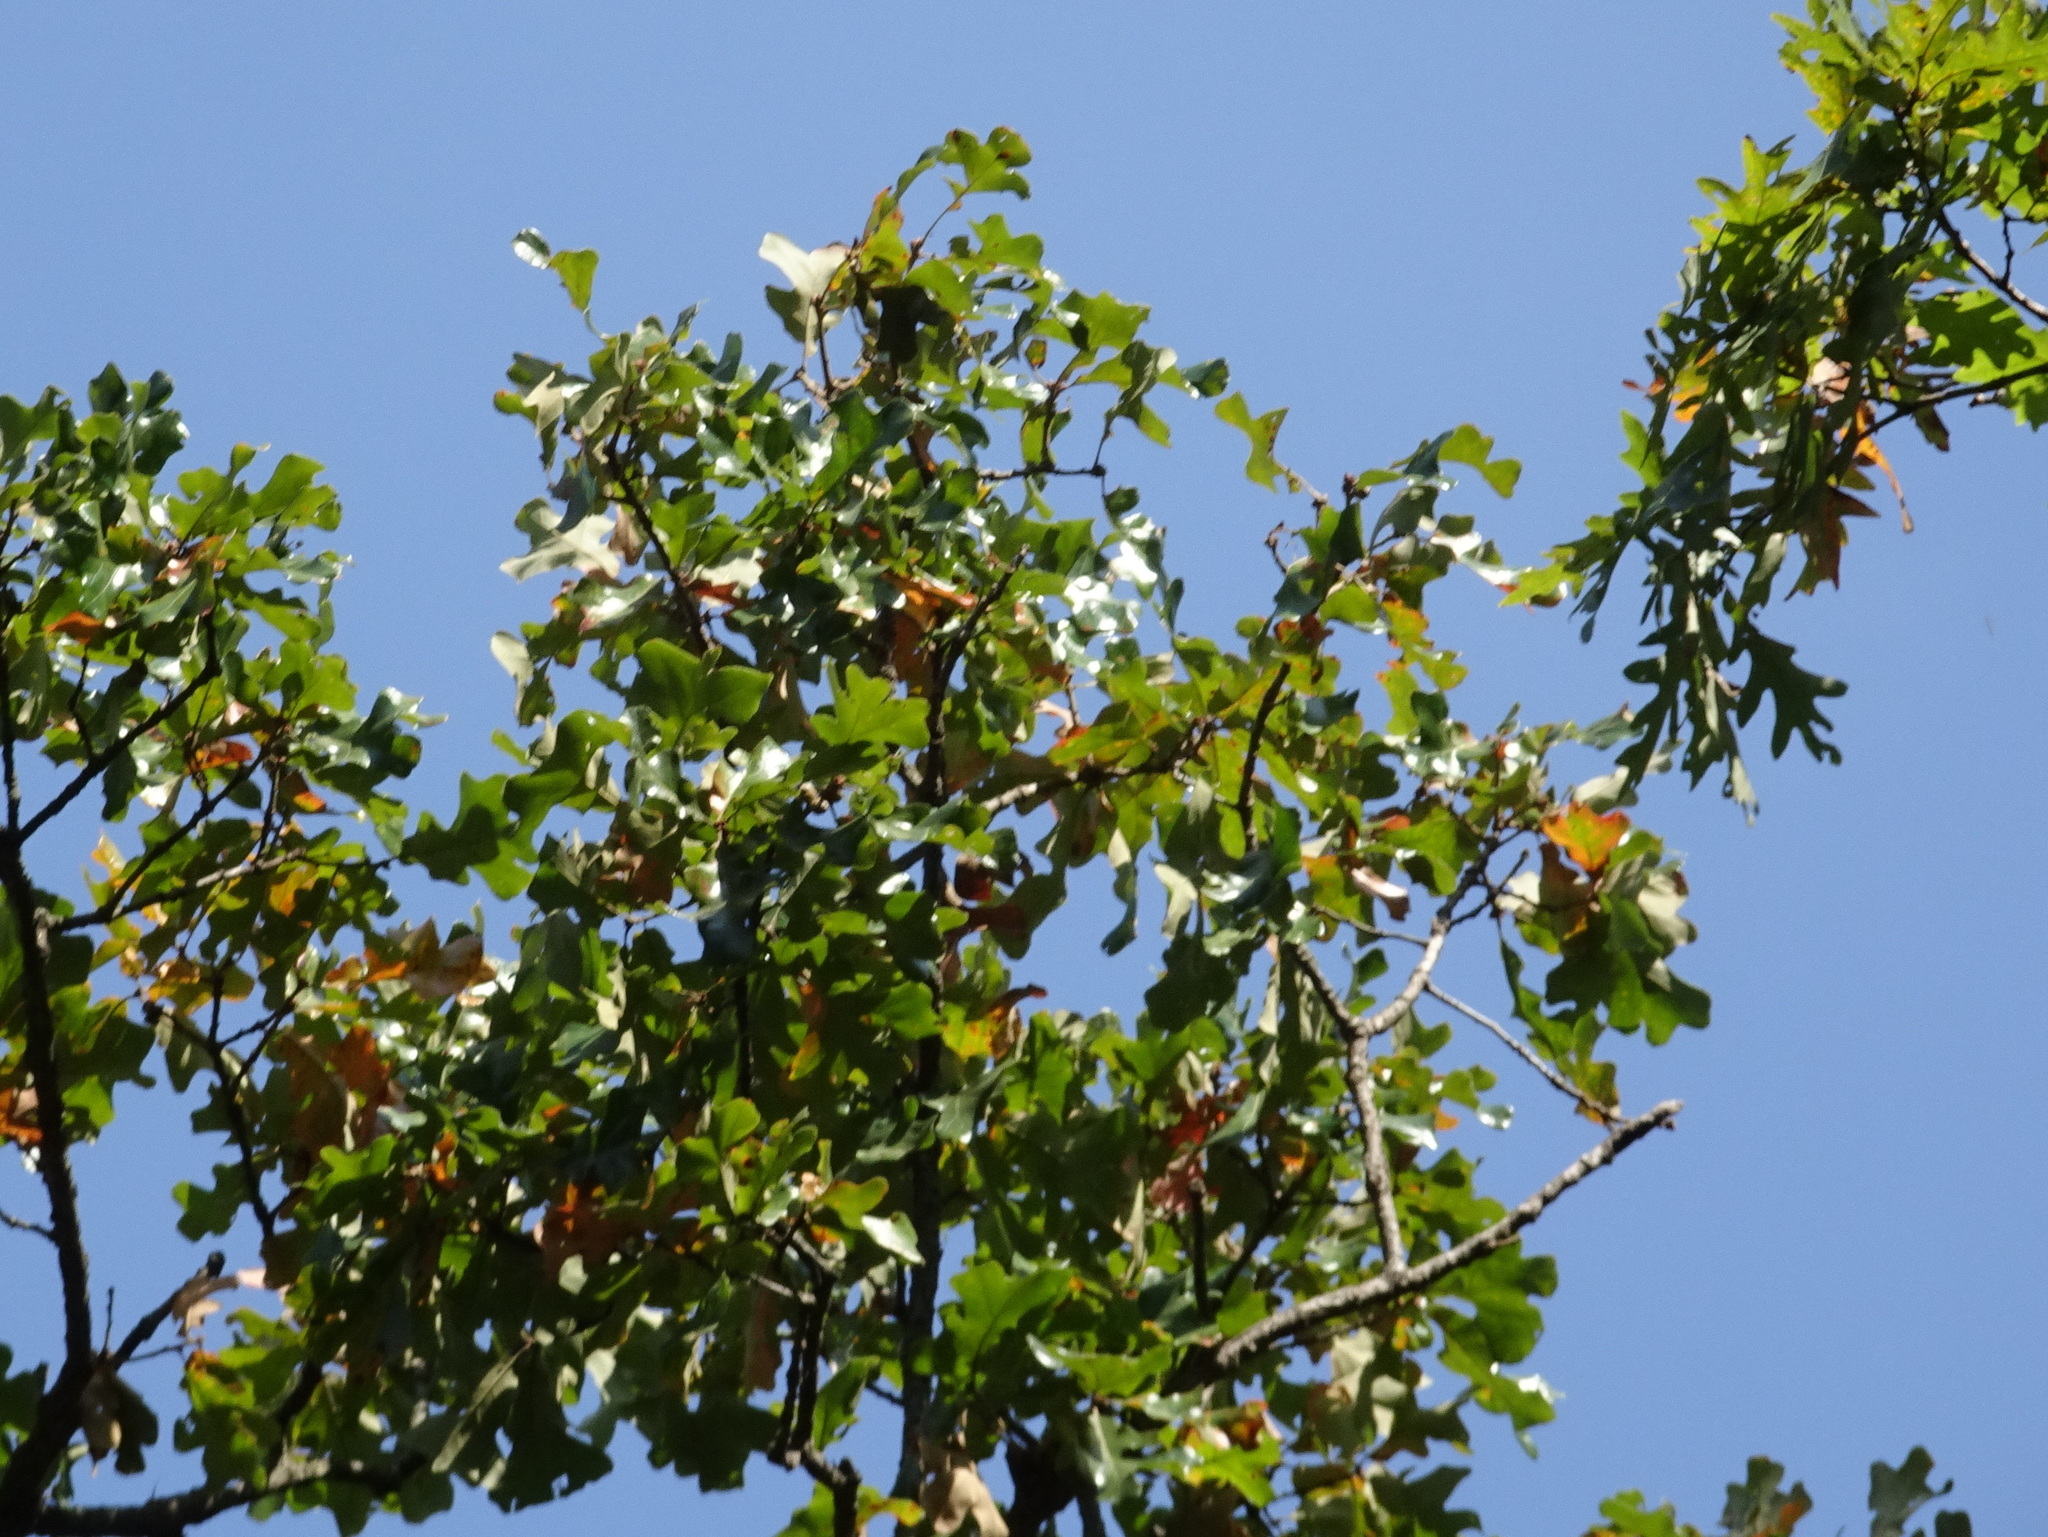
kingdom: Plantae
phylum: Tracheophyta
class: Magnoliopsida
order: Fagales
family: Fagaceae
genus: Quercus
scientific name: Quercus stellata
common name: Post oak
